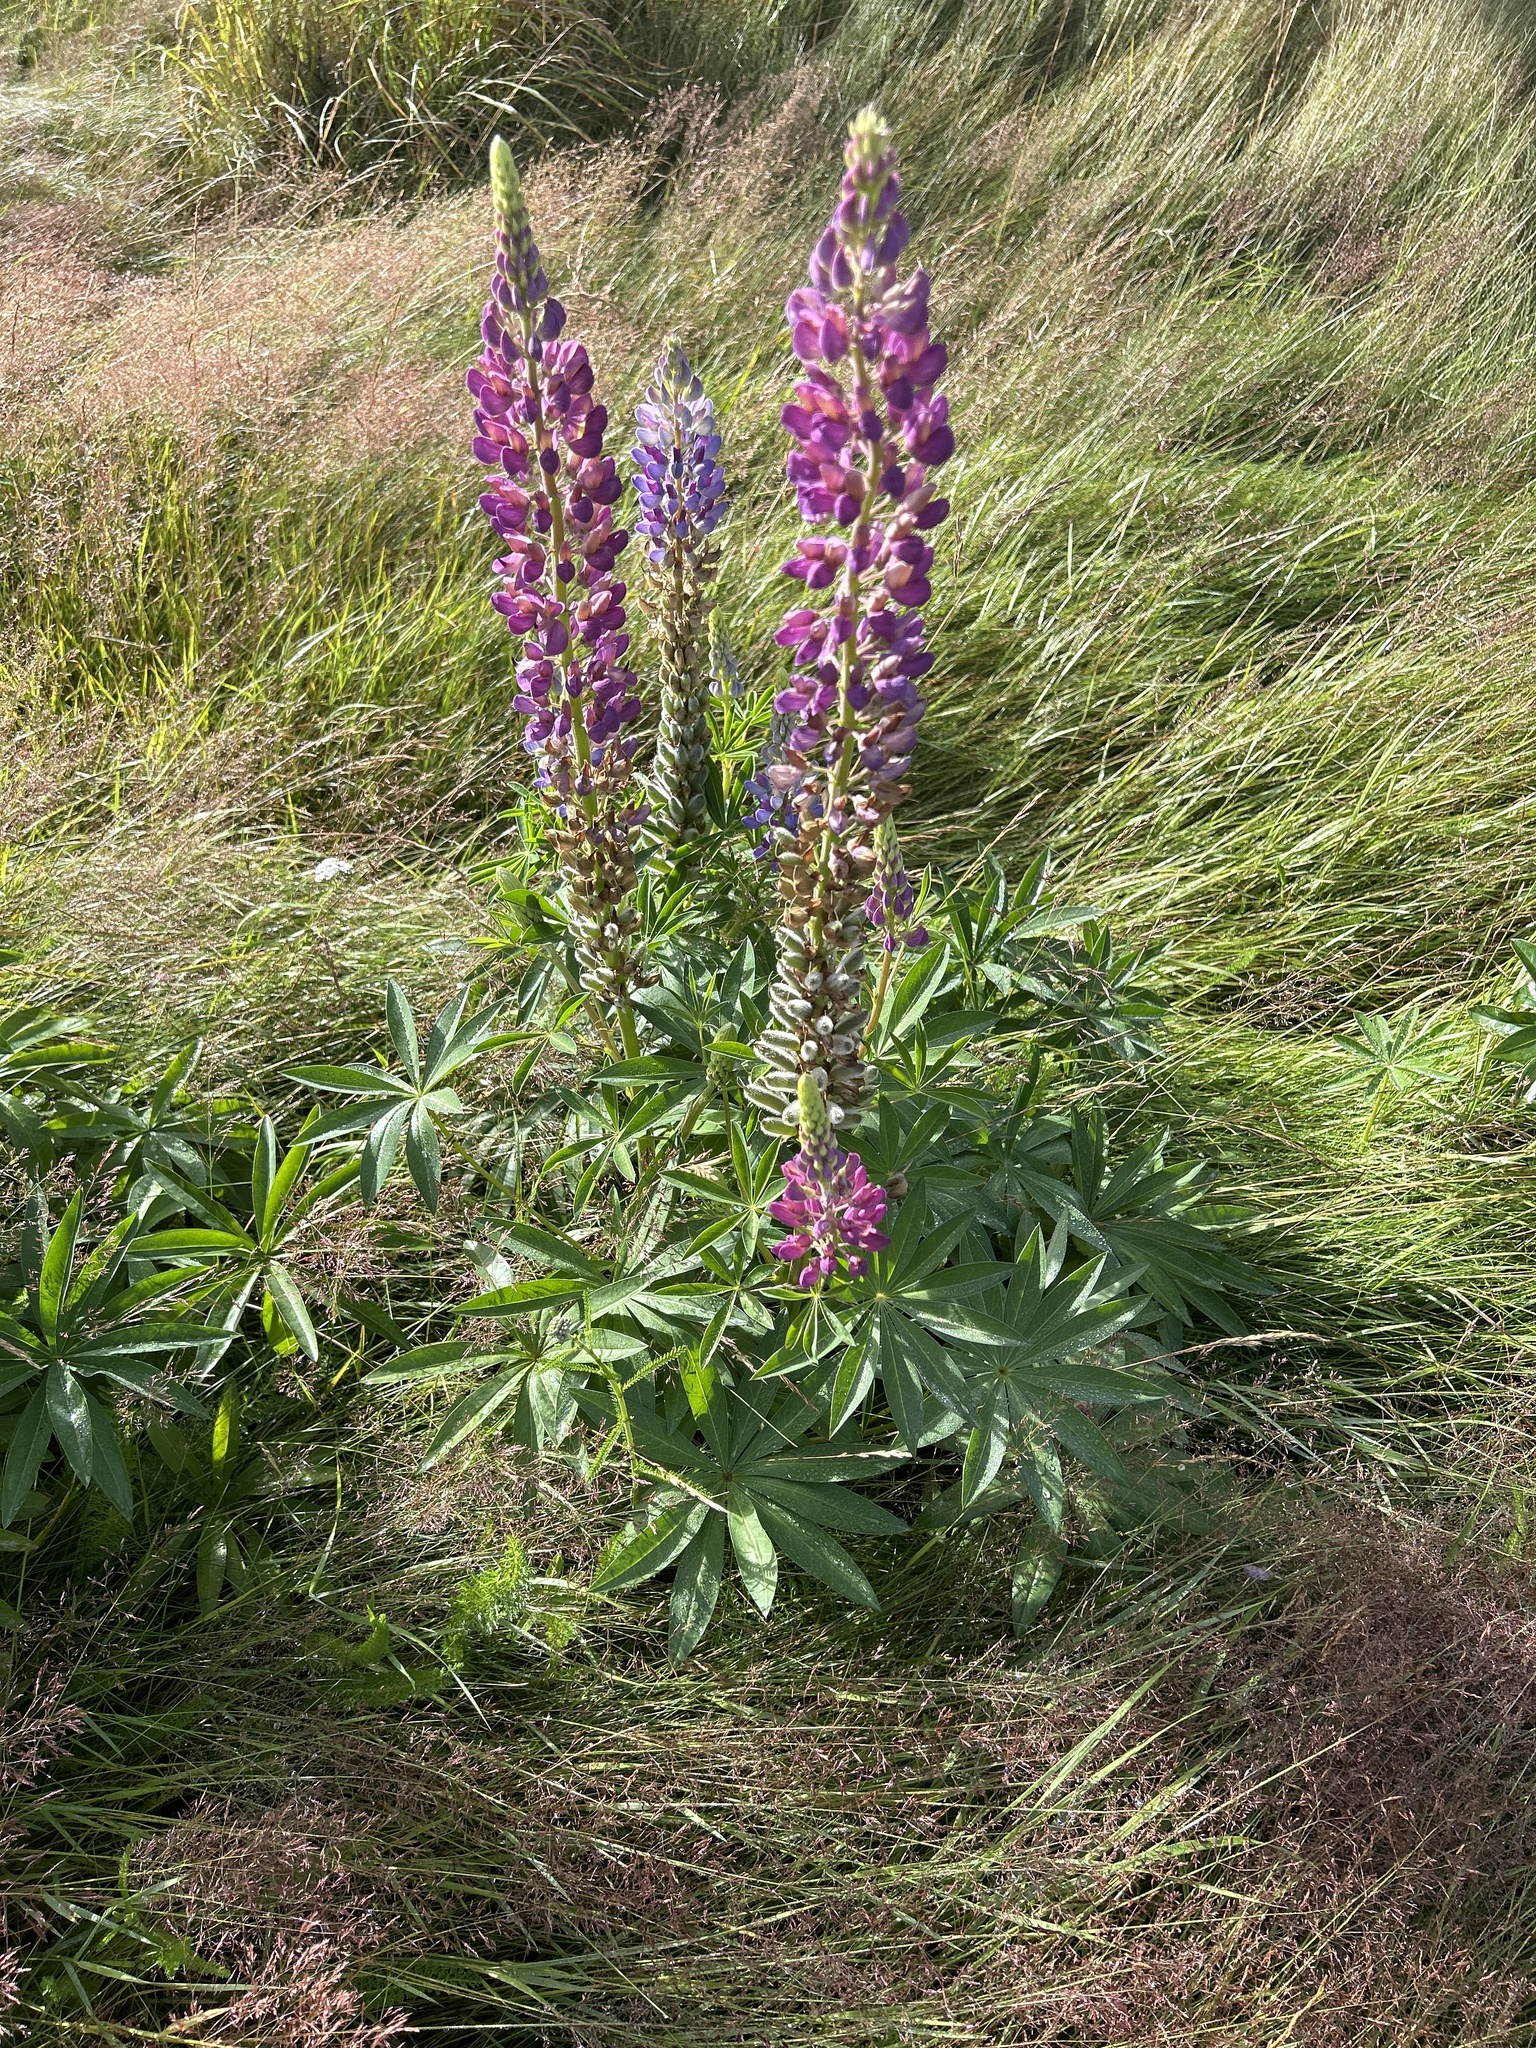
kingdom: Plantae
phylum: Tracheophyta
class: Magnoliopsida
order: Fabales
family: Fabaceae
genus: Lupinus
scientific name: Lupinus polyphyllus
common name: Garden lupin
